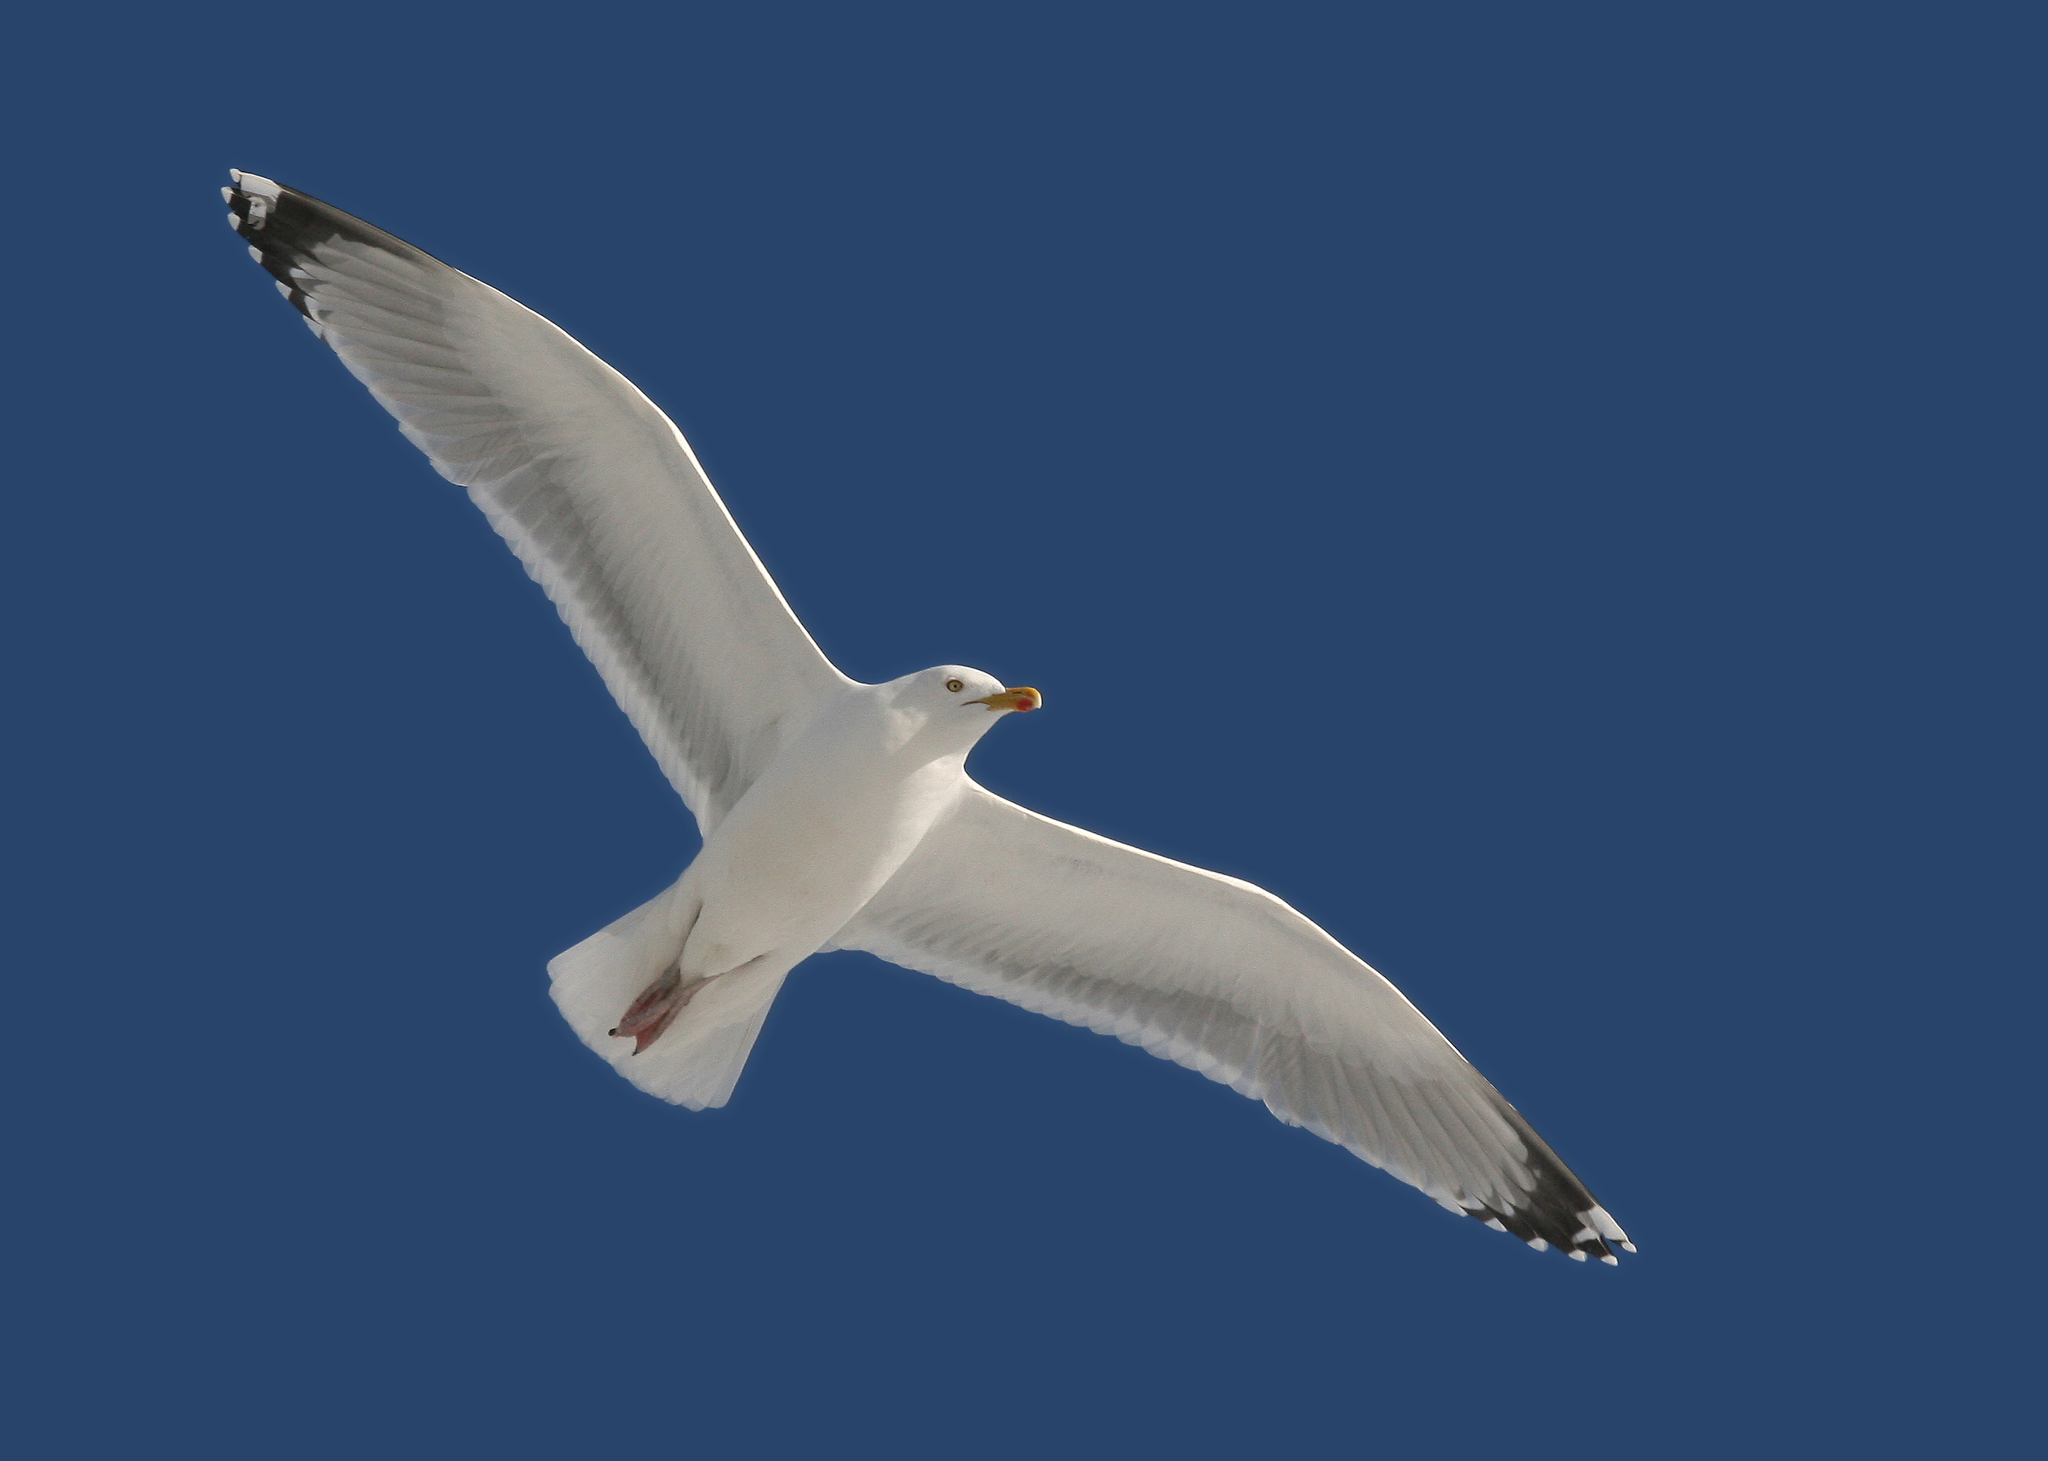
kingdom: Animalia
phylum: Chordata
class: Aves
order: Charadriiformes
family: Laridae
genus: Larus
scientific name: Larus argentatus
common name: Herring gull
